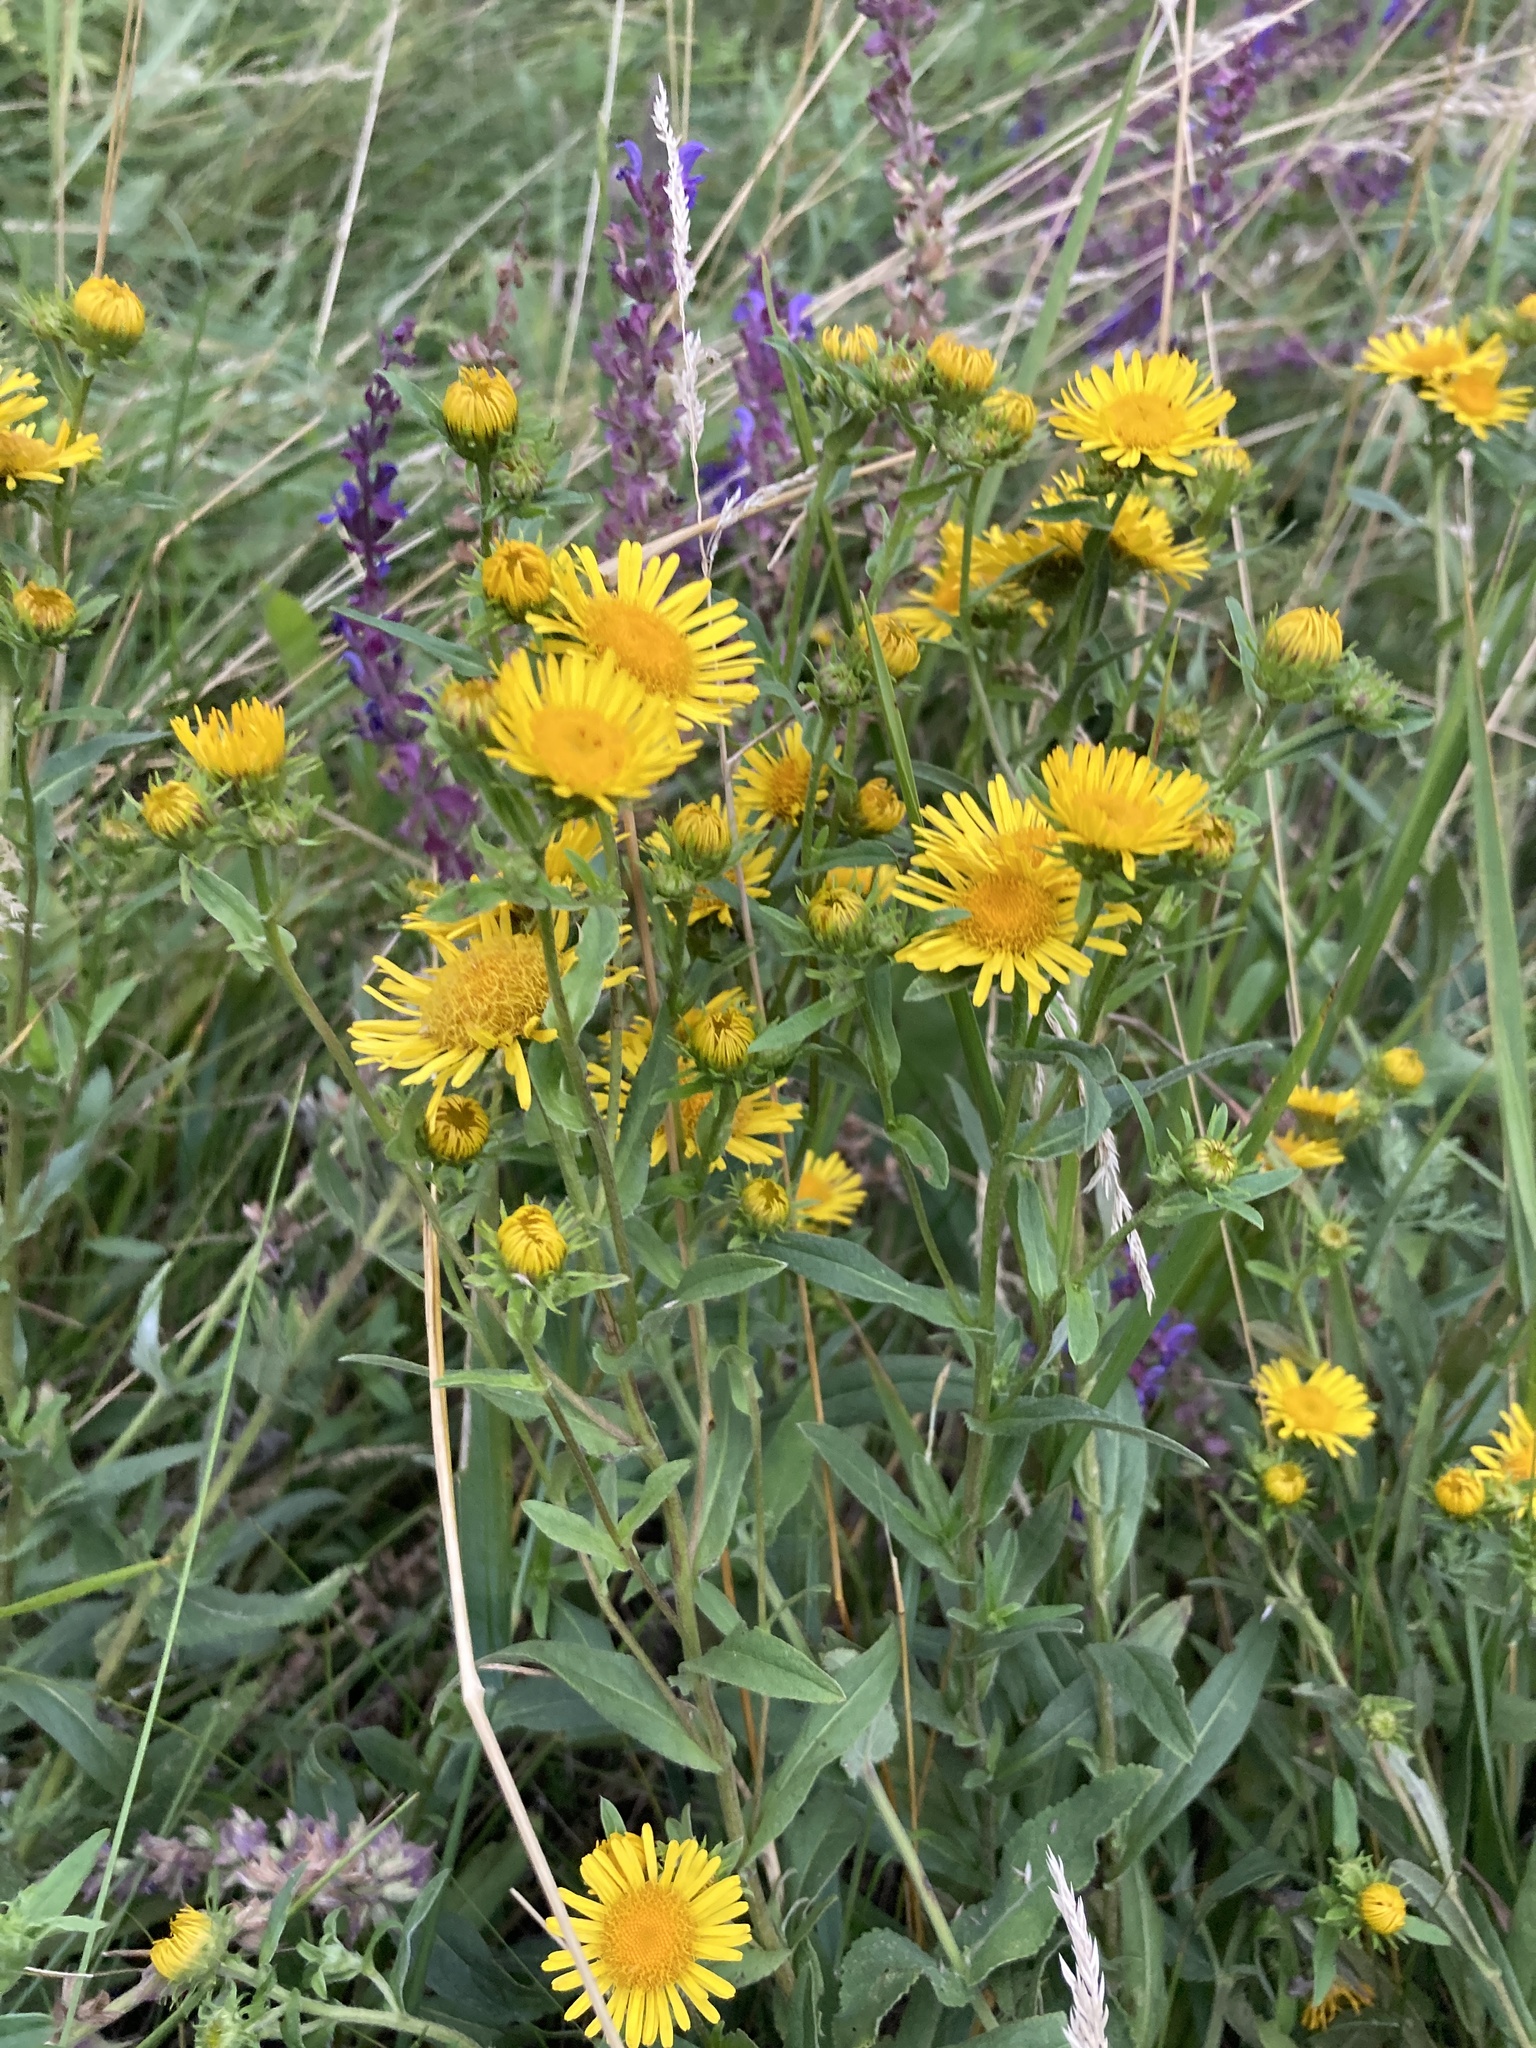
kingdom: Plantae
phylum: Tracheophyta
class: Magnoliopsida
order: Asterales
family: Asteraceae
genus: Pentanema
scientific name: Pentanema britannicum
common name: British elecampane
